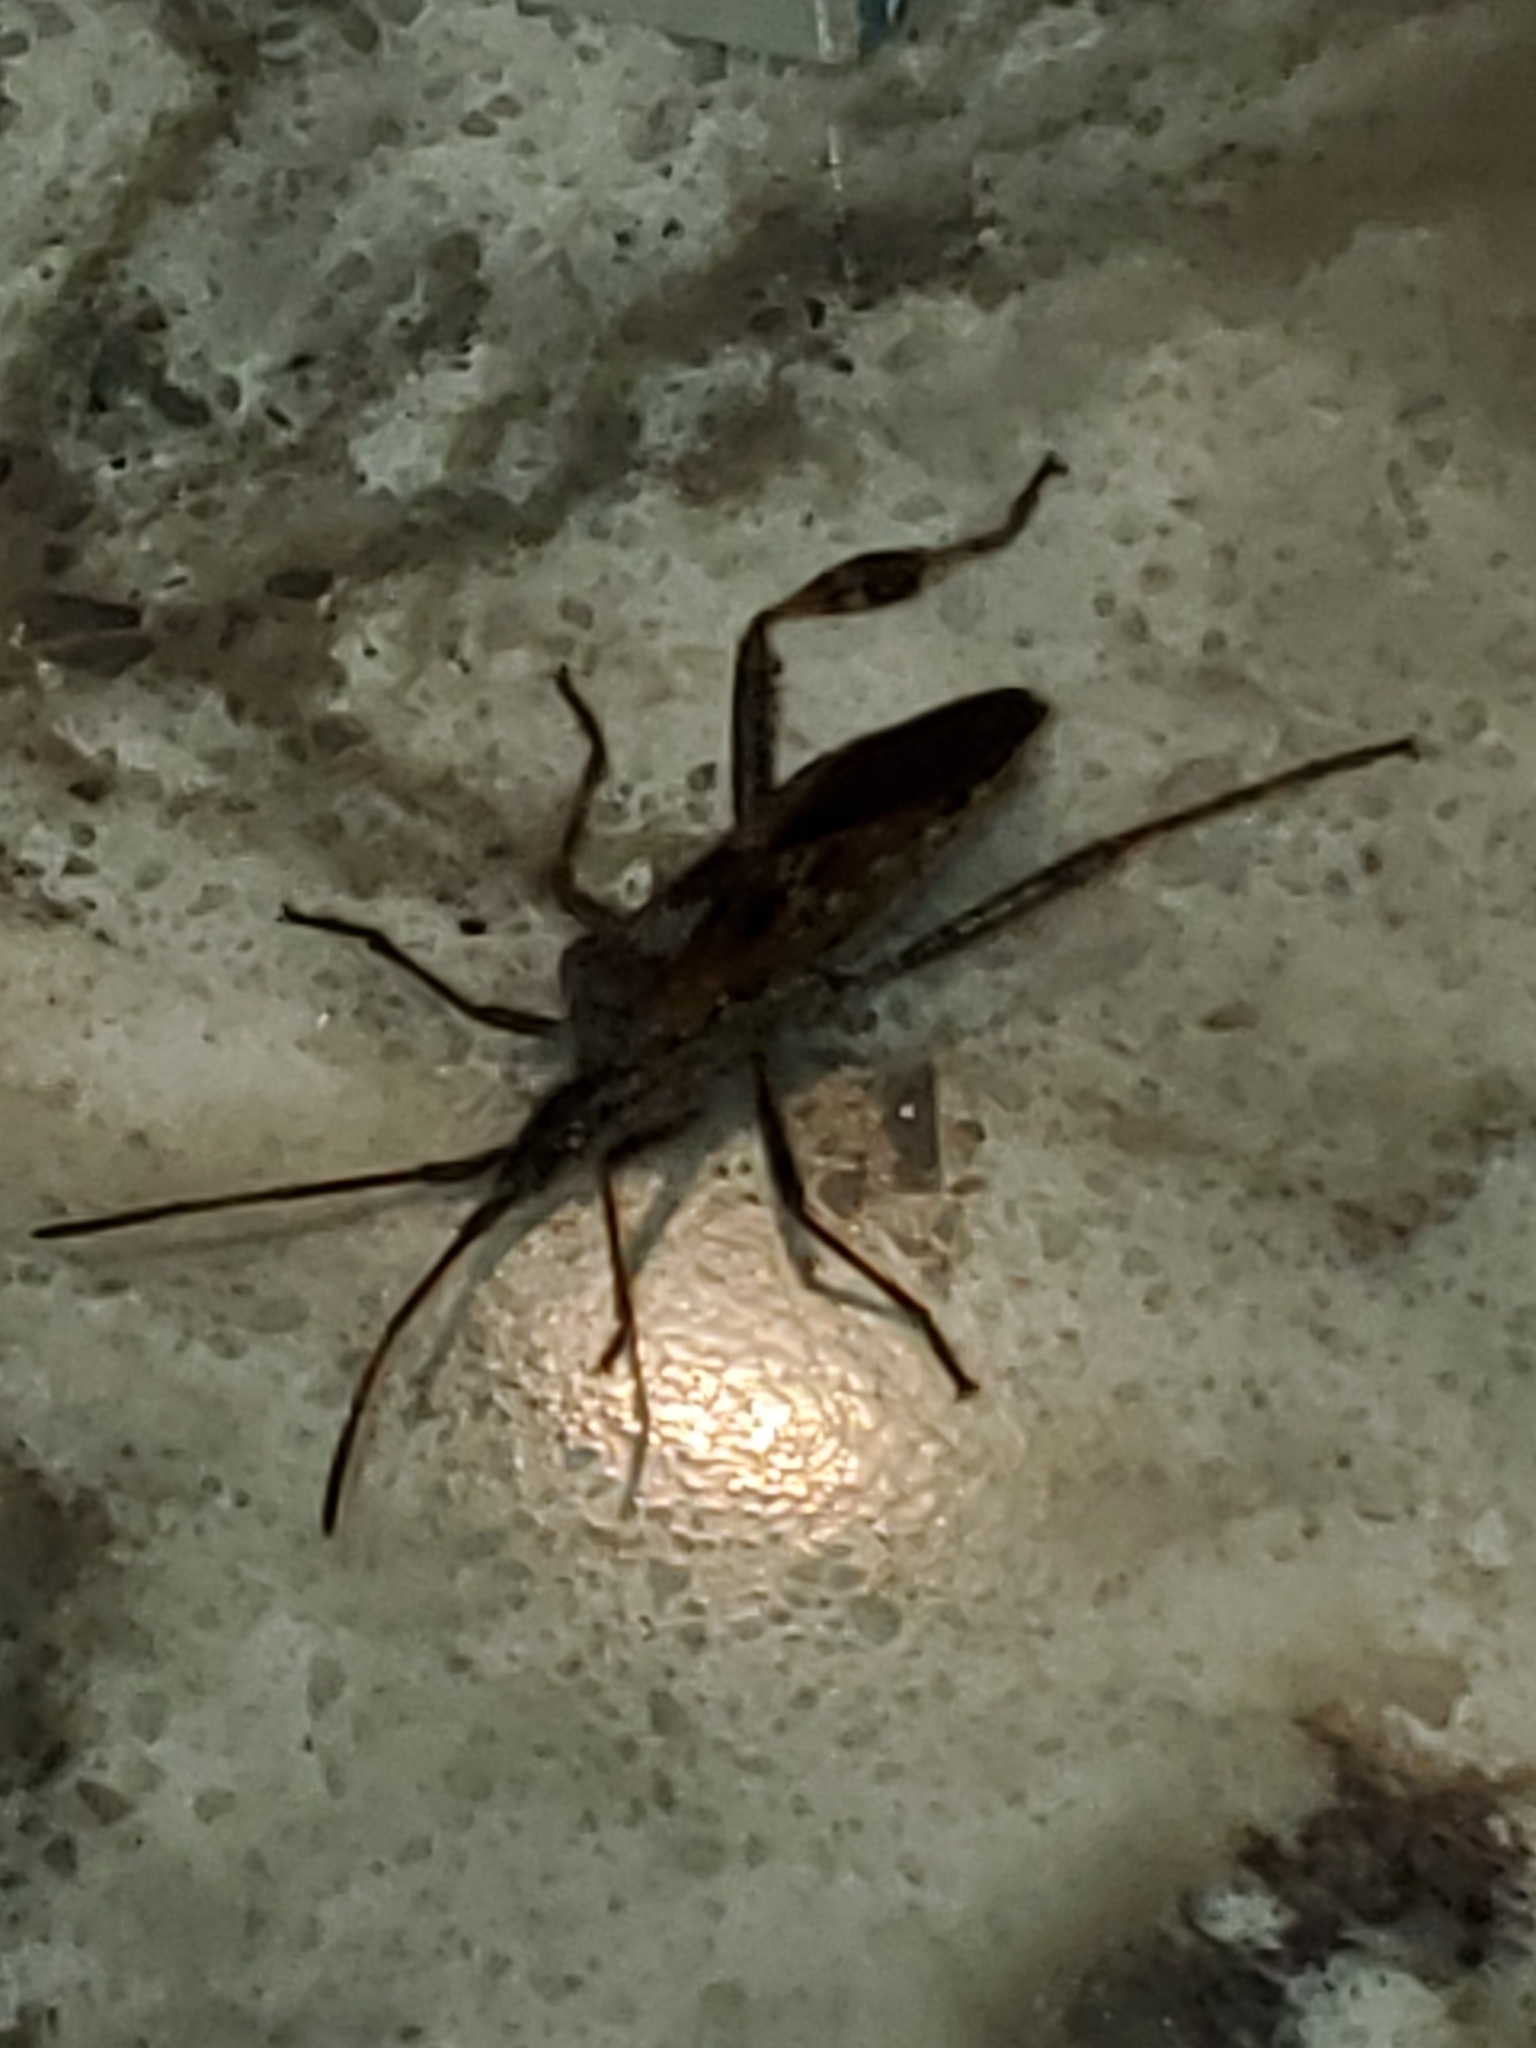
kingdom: Animalia
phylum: Arthropoda
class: Insecta
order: Hemiptera
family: Coreidae
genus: Leptoglossus
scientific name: Leptoglossus occidentalis
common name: Western conifer-seed bug
